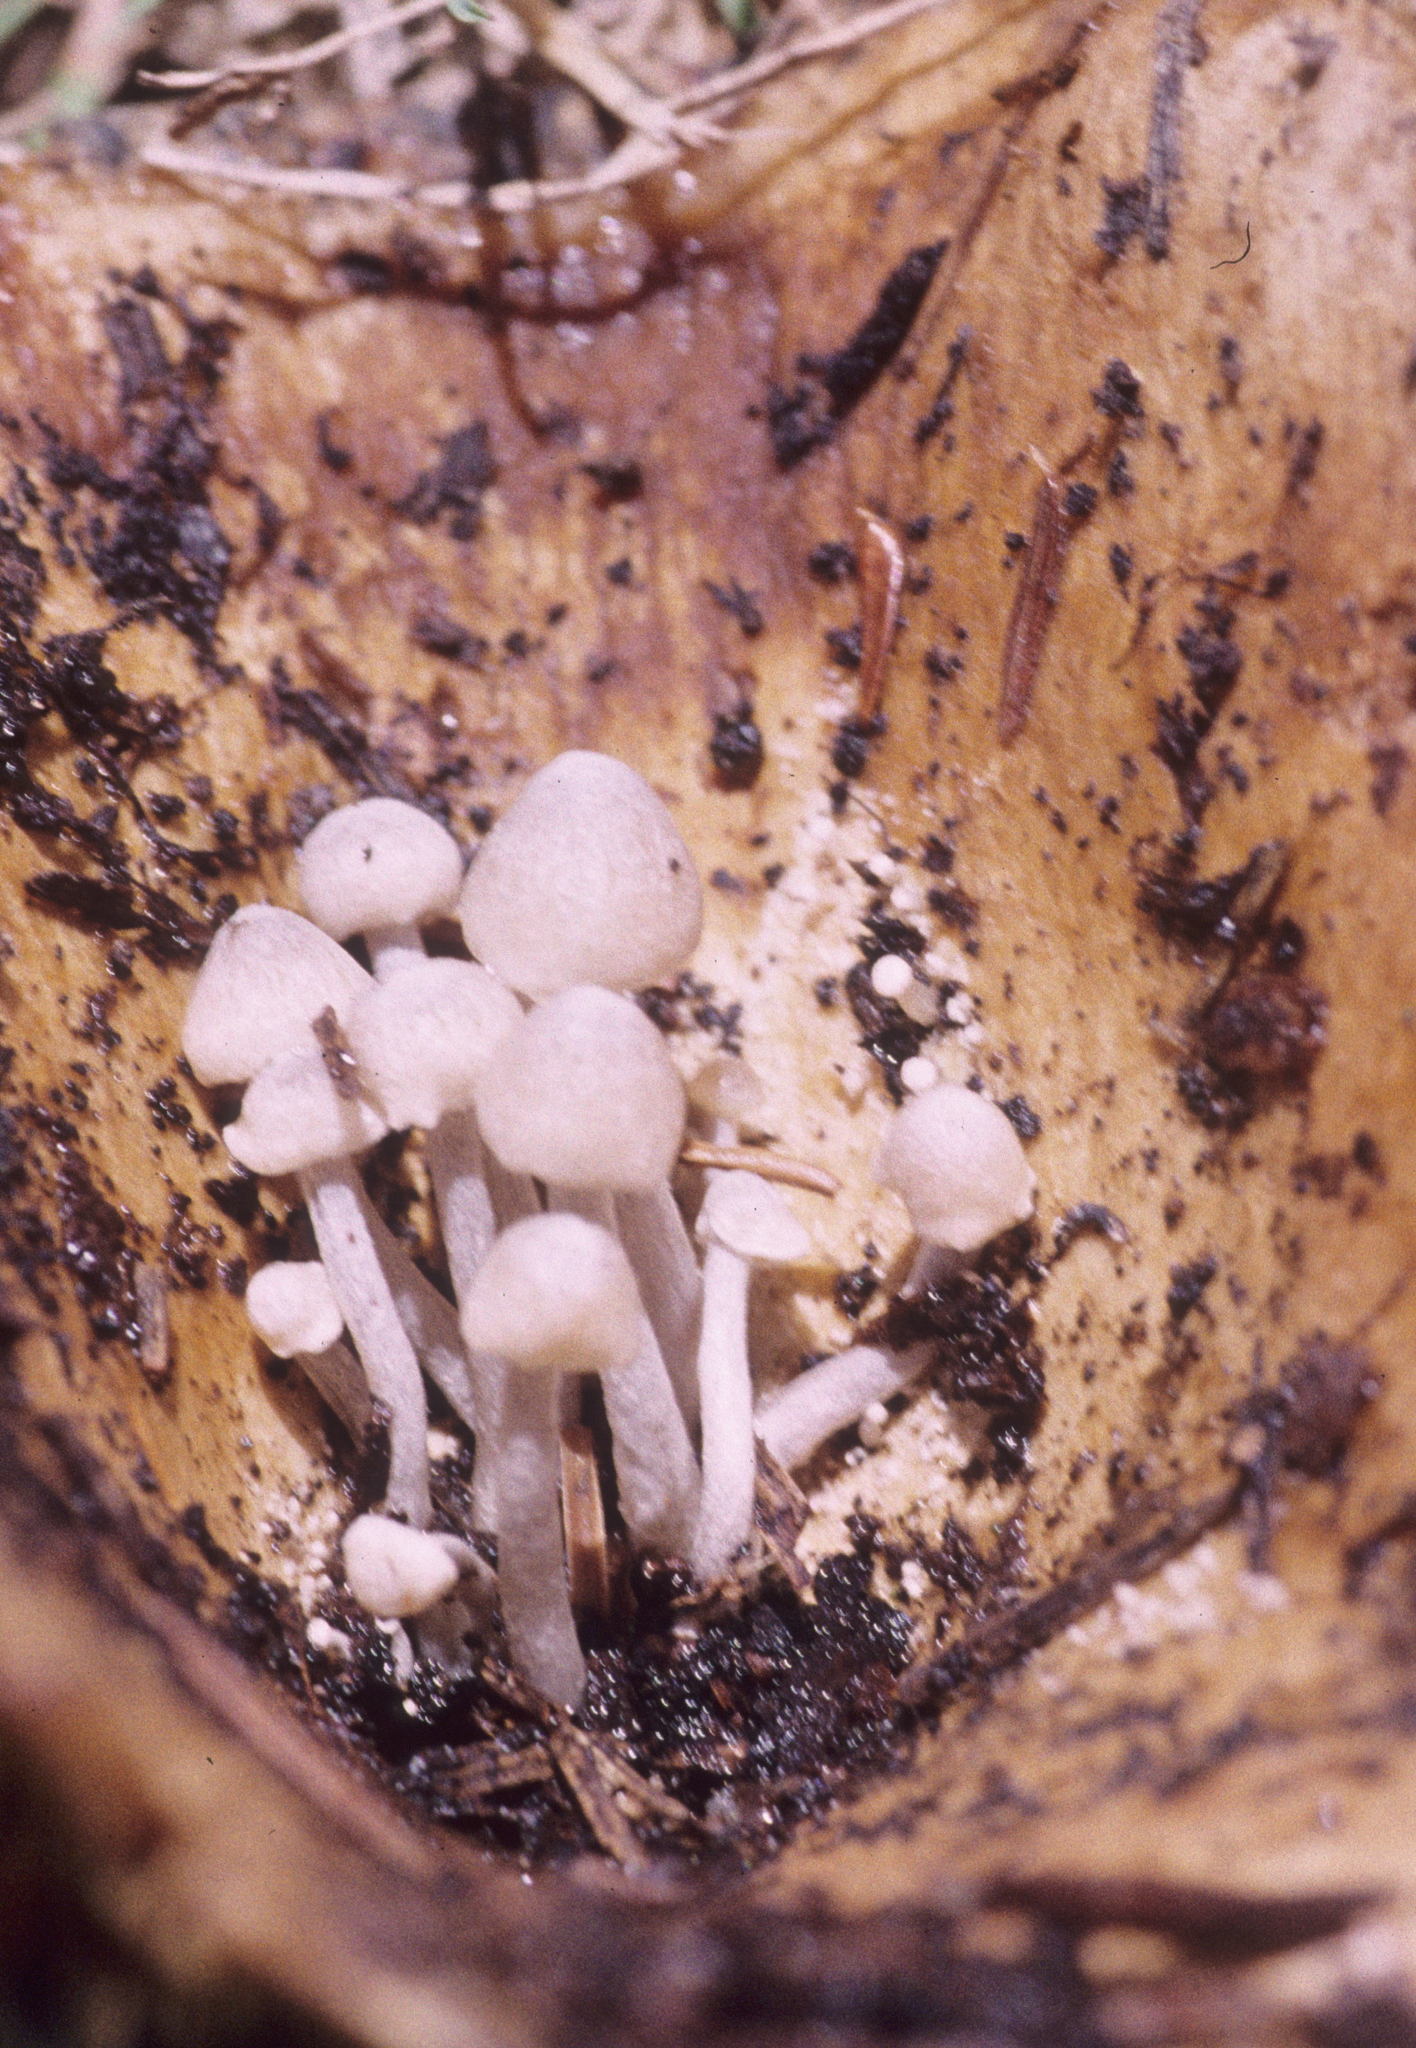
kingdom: Fungi
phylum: Basidiomycota
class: Agaricomycetes
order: Agaricales
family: Lyophyllaceae
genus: Asterophora
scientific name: Asterophora parasitica
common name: Silky piggyback
